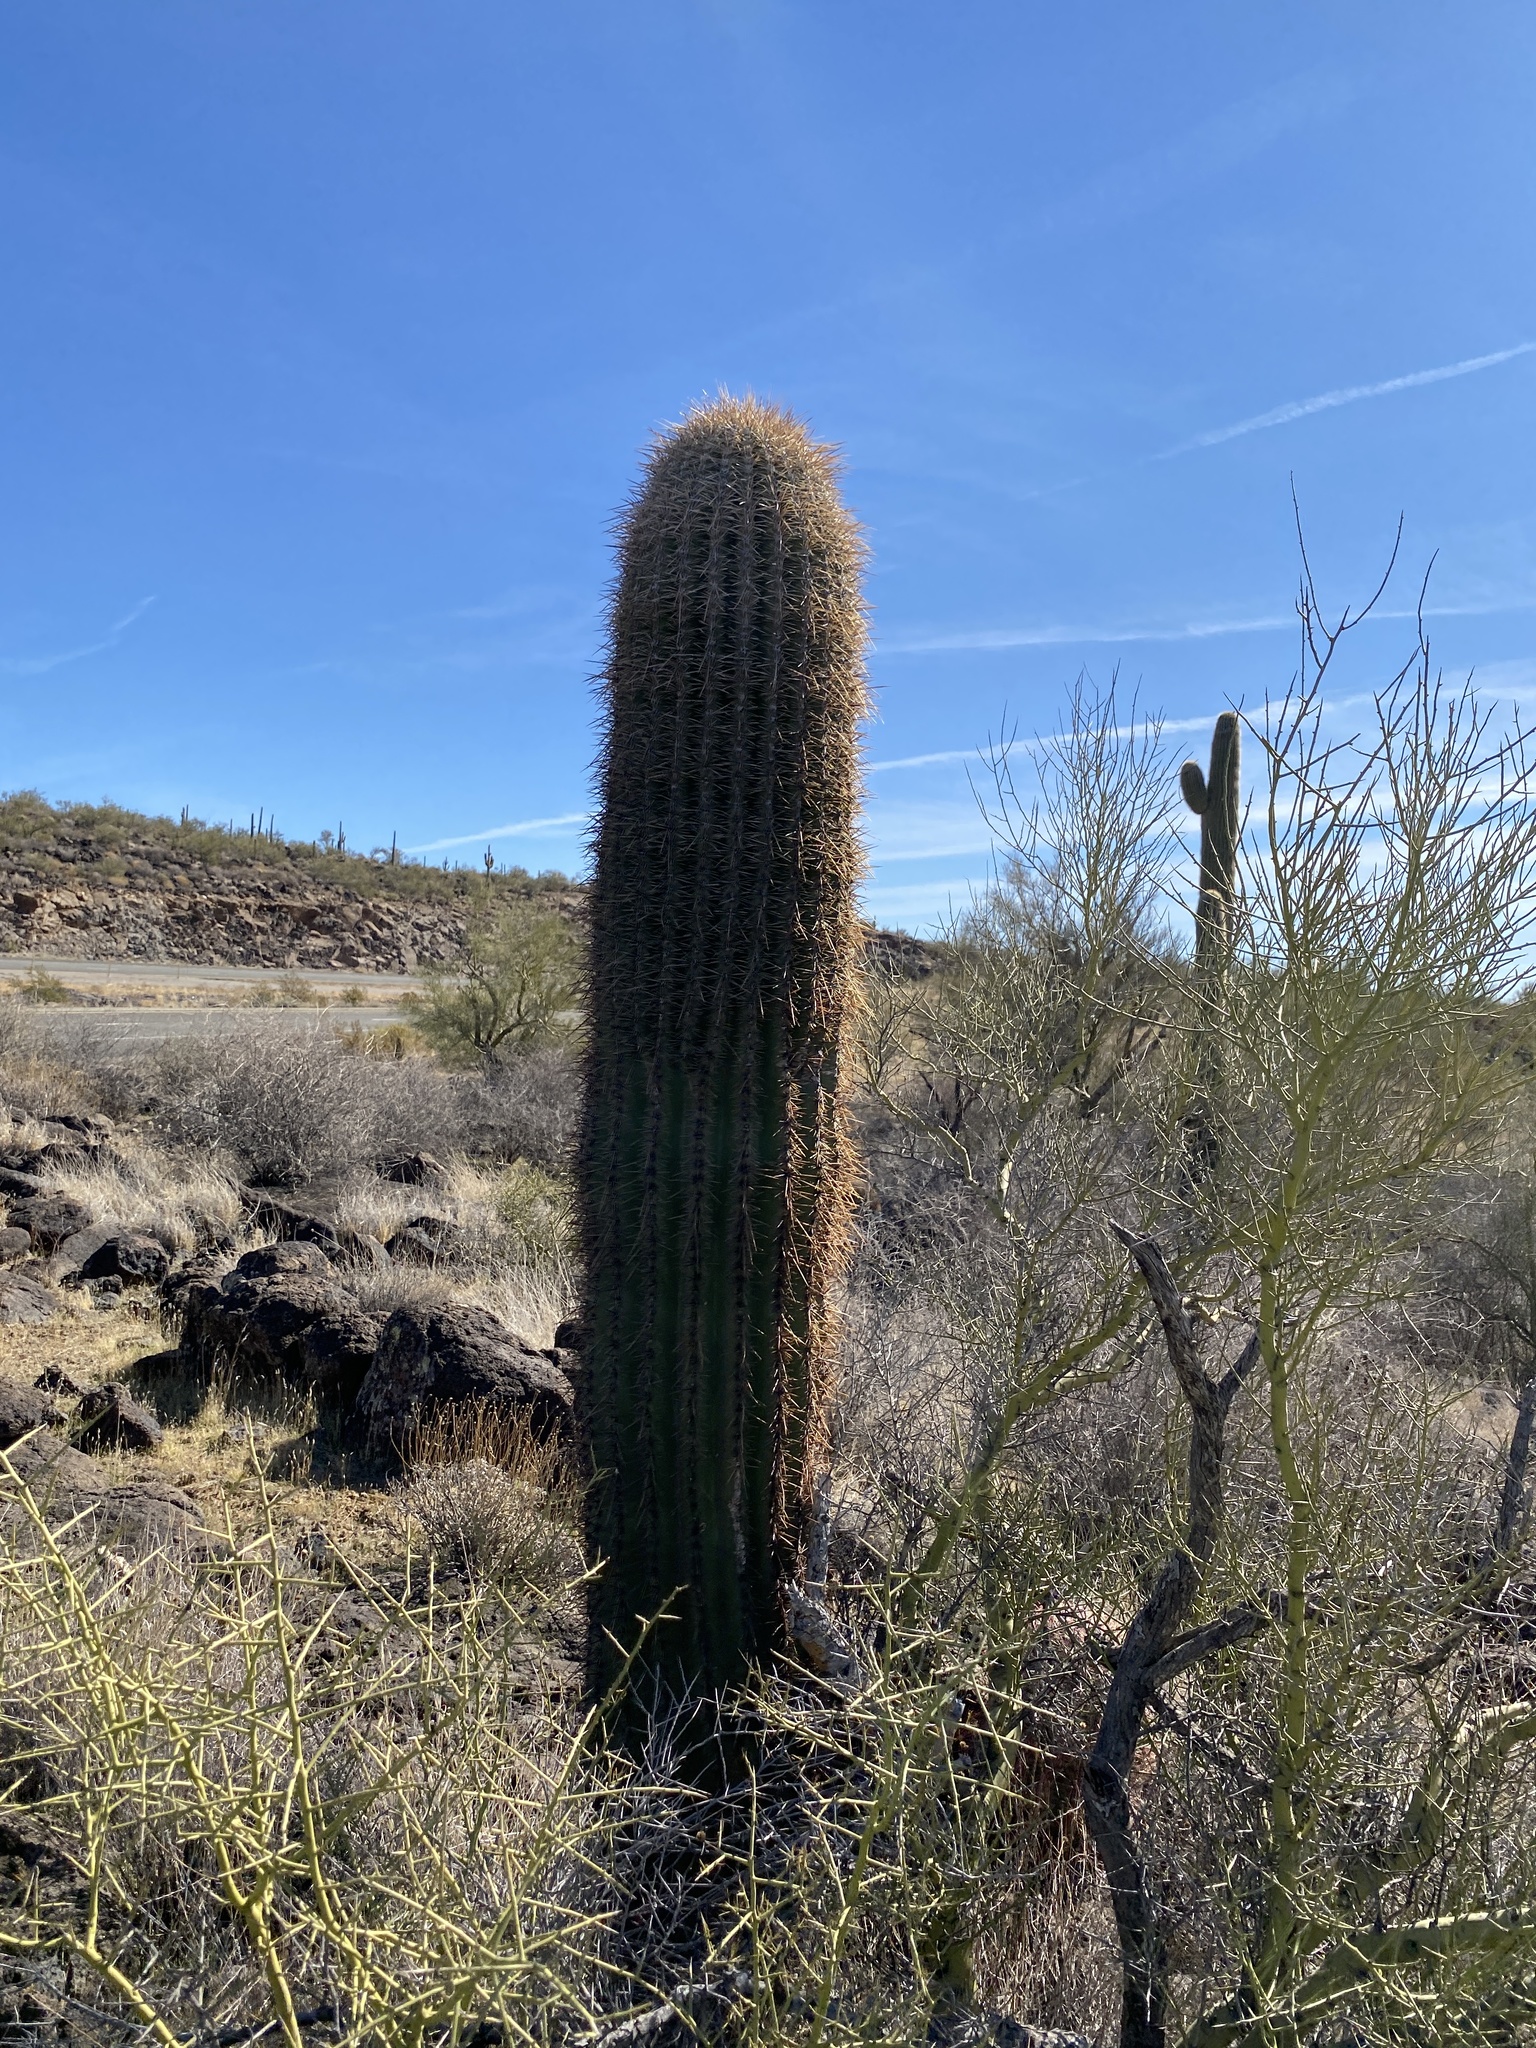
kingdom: Plantae
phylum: Tracheophyta
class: Magnoliopsida
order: Caryophyllales
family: Cactaceae
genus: Carnegiea
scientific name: Carnegiea gigantea
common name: Saguaro
